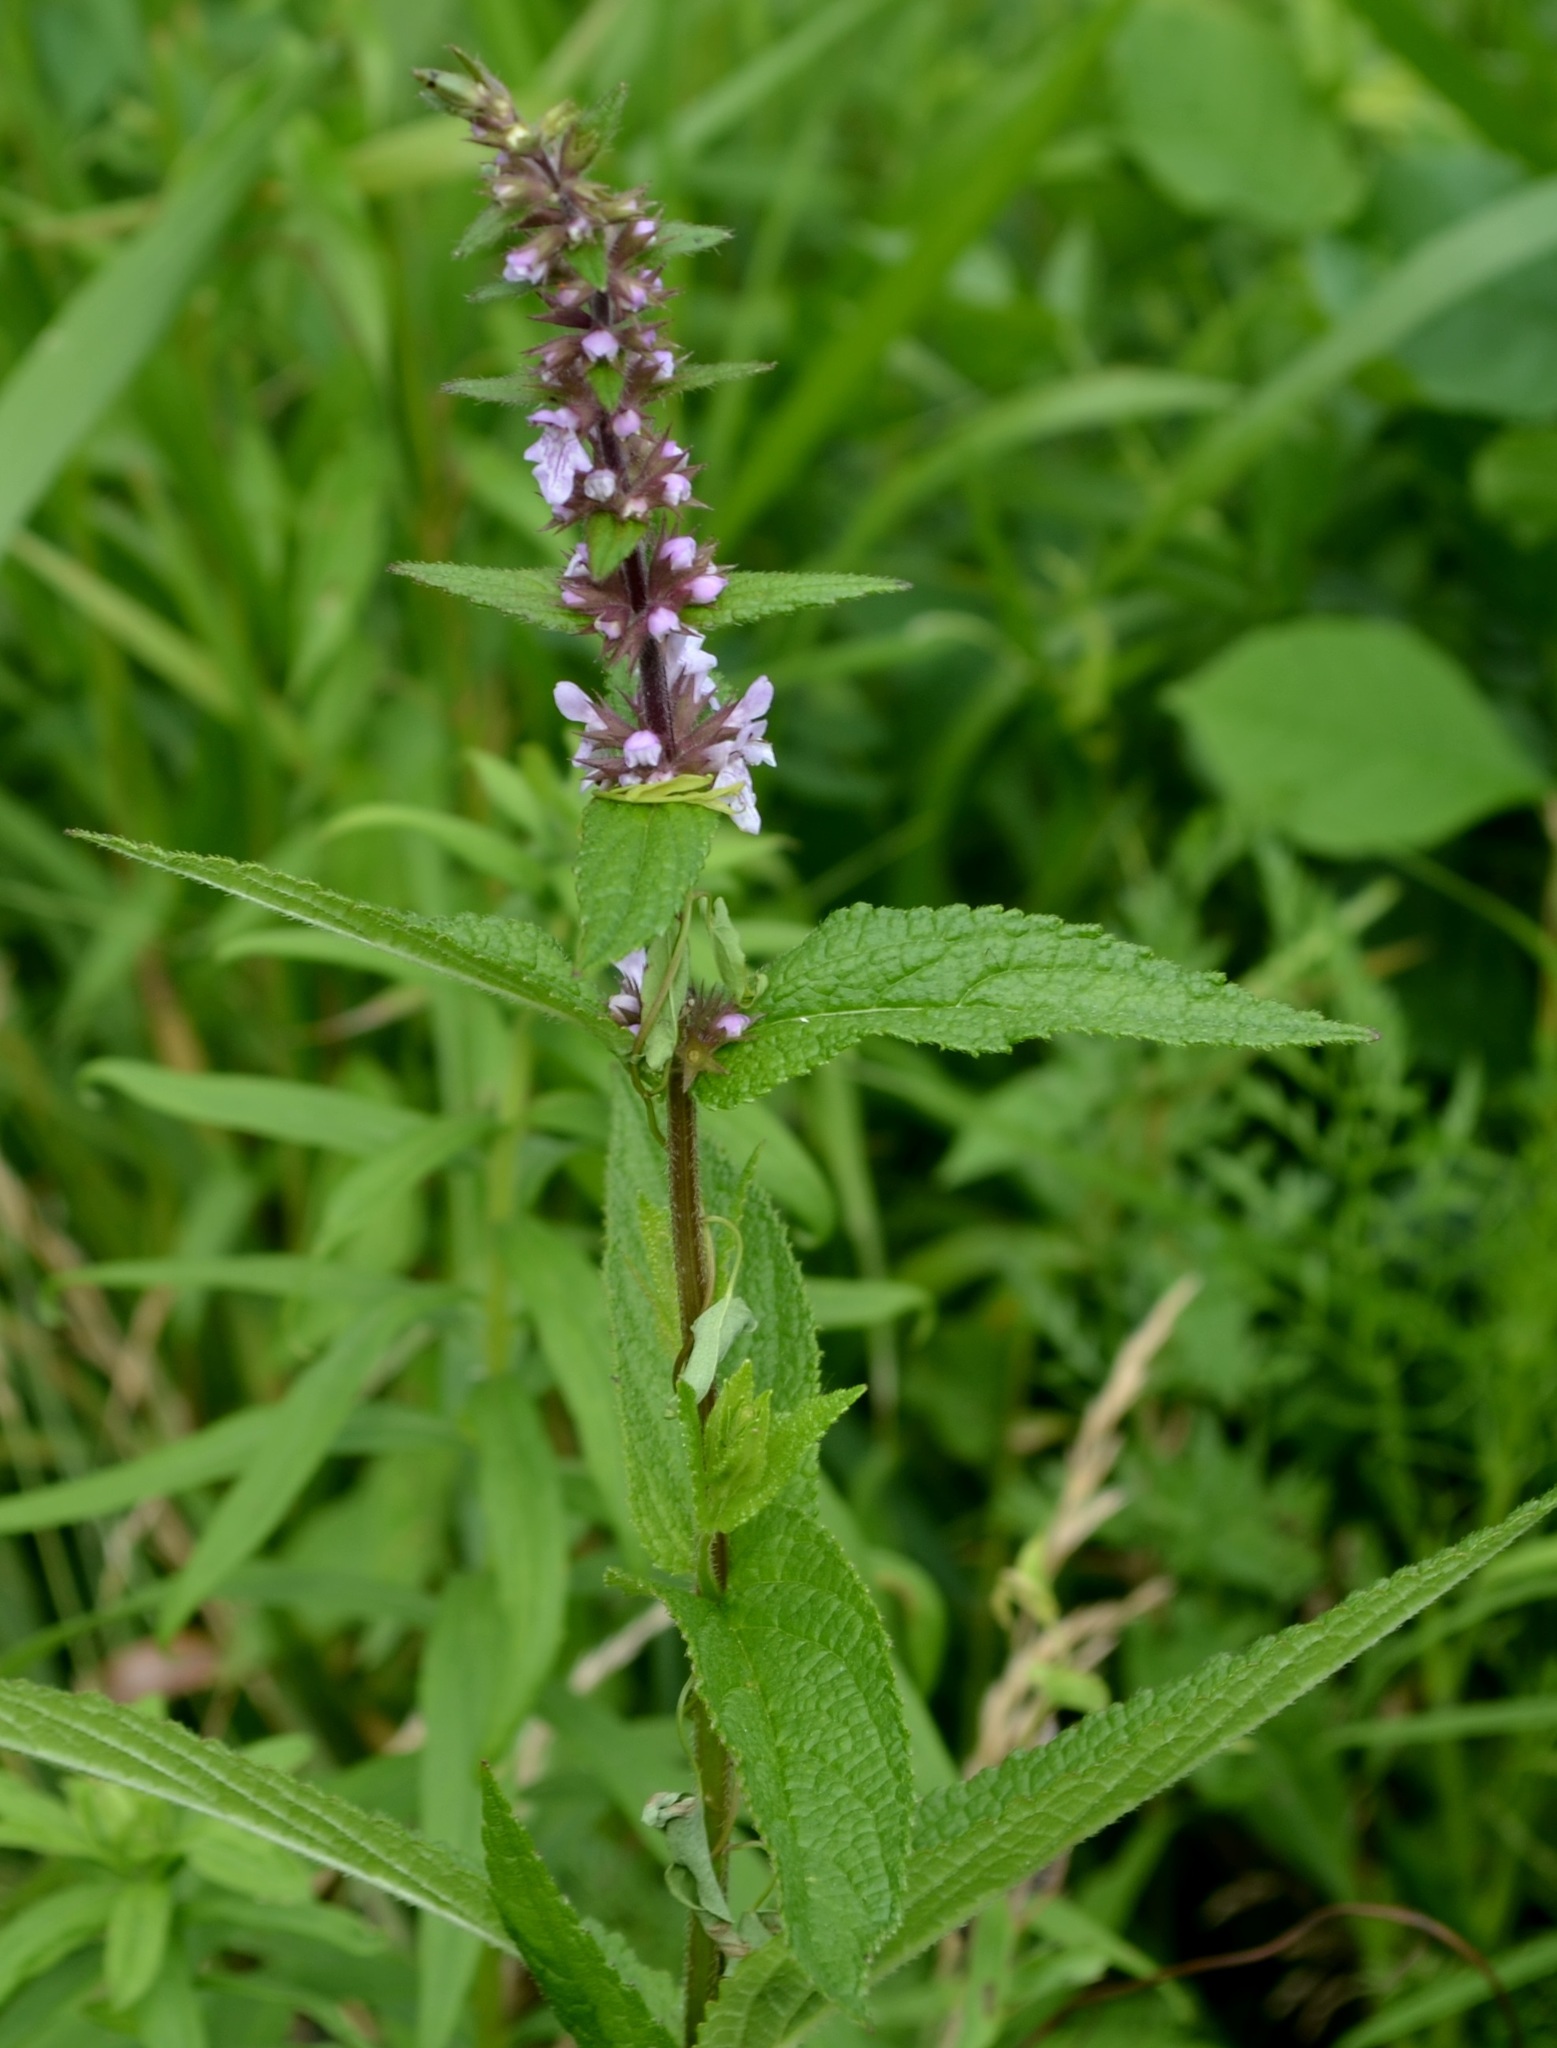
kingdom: Plantae
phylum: Tracheophyta
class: Magnoliopsida
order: Lamiales
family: Lamiaceae
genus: Stachys
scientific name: Stachys palustris
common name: Marsh woundwort
